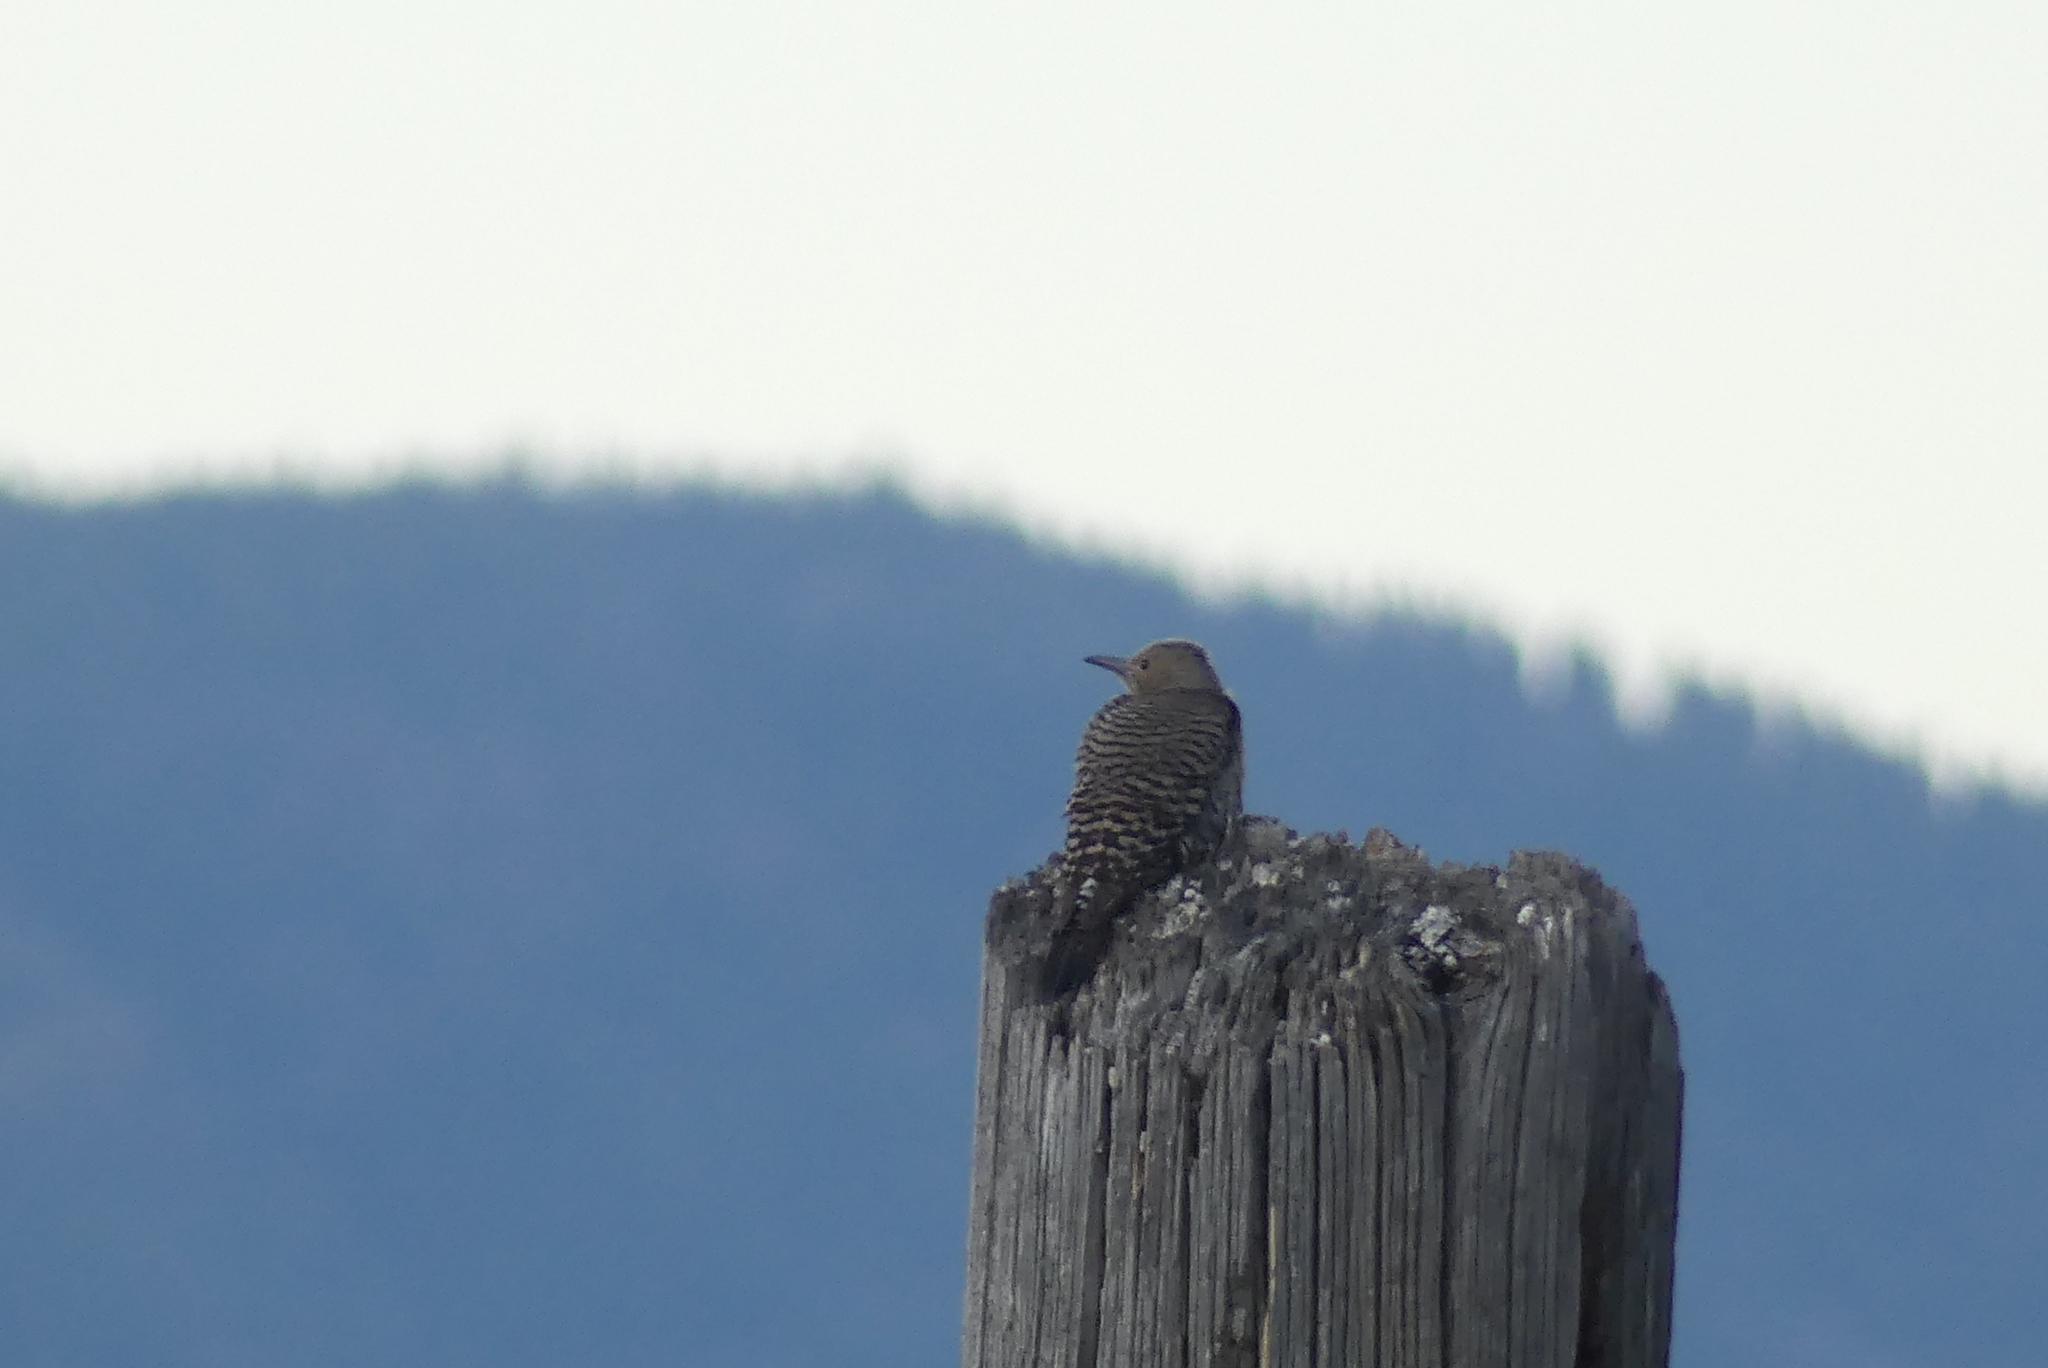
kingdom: Animalia
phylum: Chordata
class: Aves
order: Piciformes
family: Picidae
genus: Colaptes
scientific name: Colaptes auratus
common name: Northern flicker
